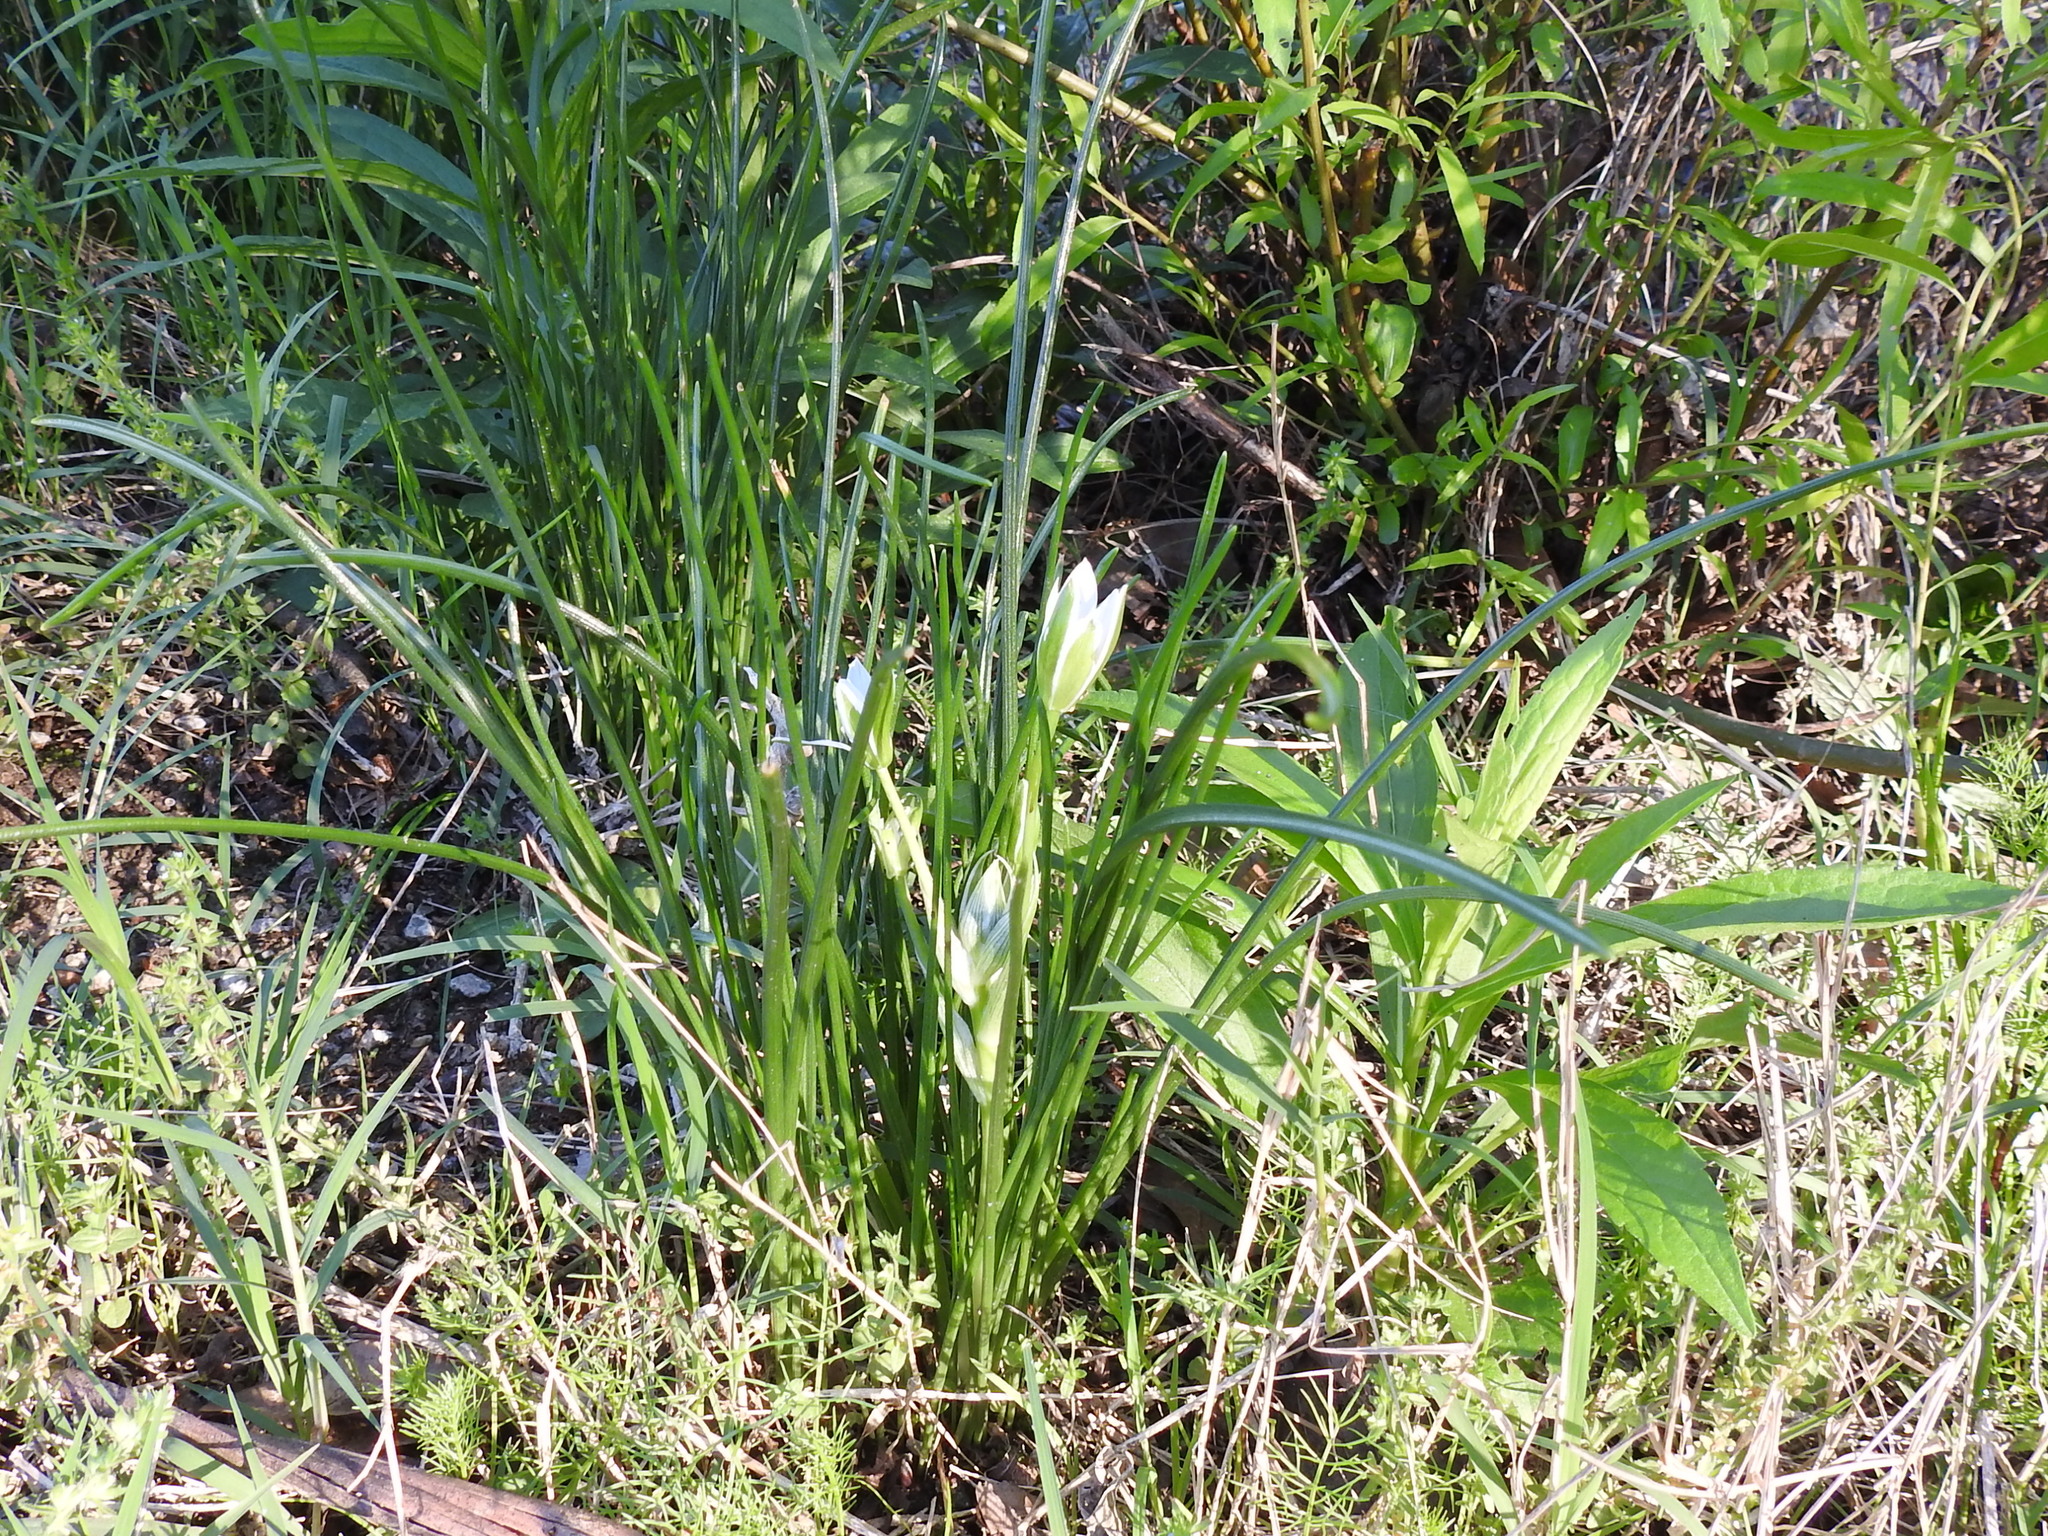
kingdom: Plantae
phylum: Tracheophyta
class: Liliopsida
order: Asparagales
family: Asparagaceae
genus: Ornithogalum
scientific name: Ornithogalum umbellatum
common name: Garden star-of-bethlehem
